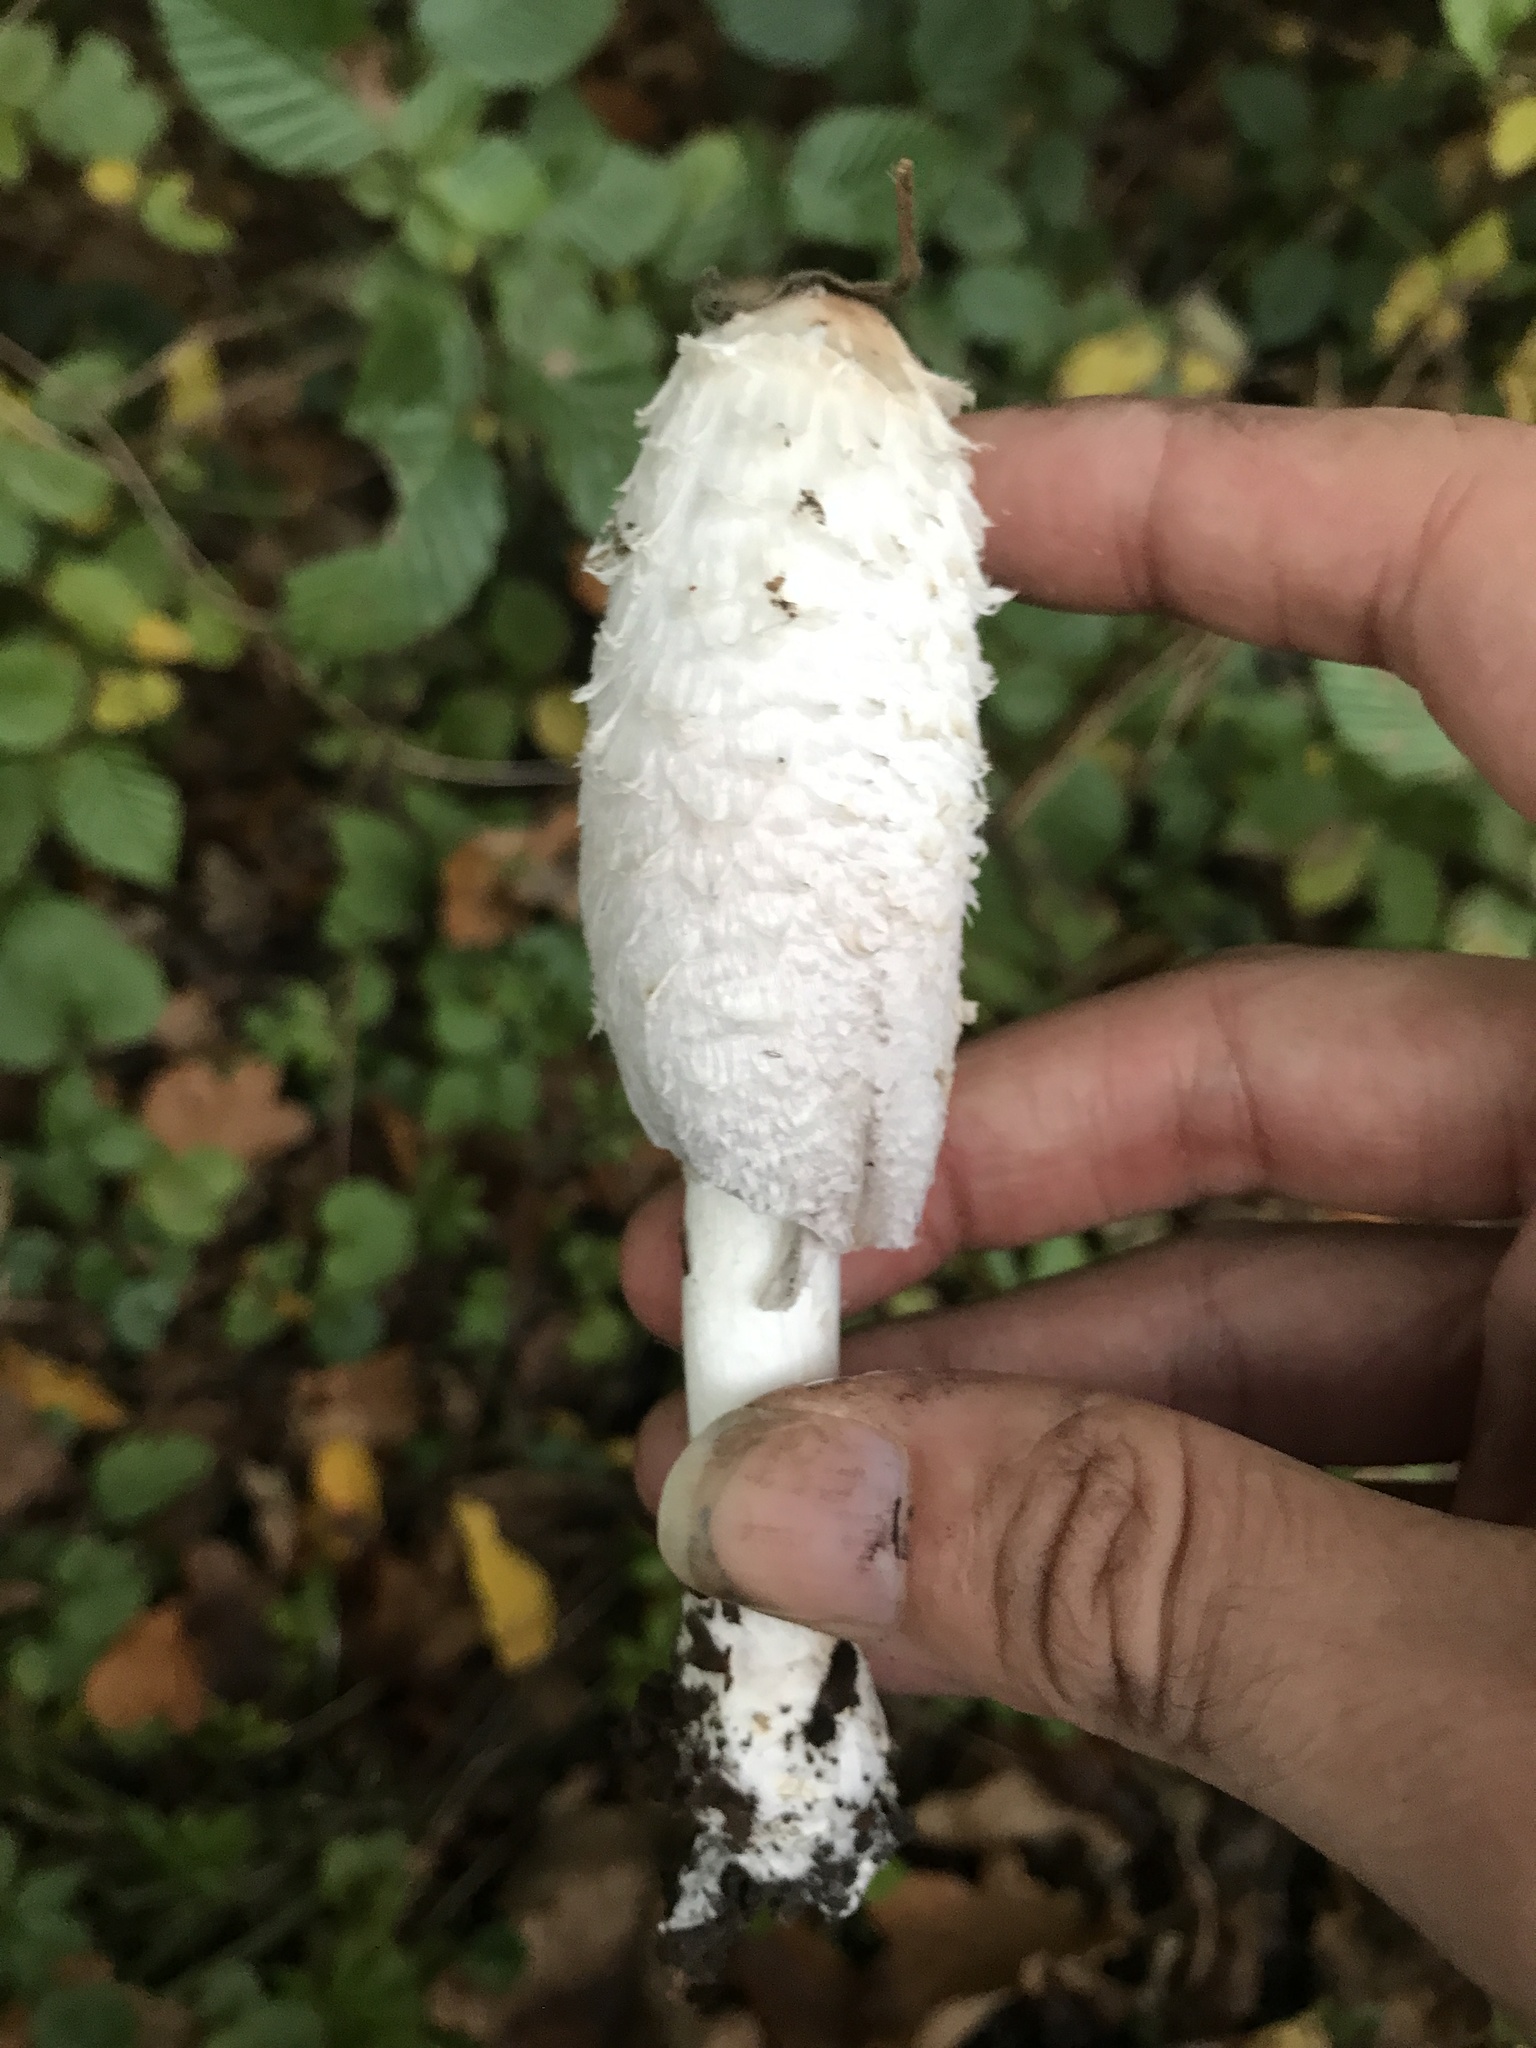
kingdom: Fungi
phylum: Basidiomycota
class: Agaricomycetes
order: Agaricales
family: Agaricaceae
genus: Coprinus
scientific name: Coprinus comatus
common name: Lawyer's wig
